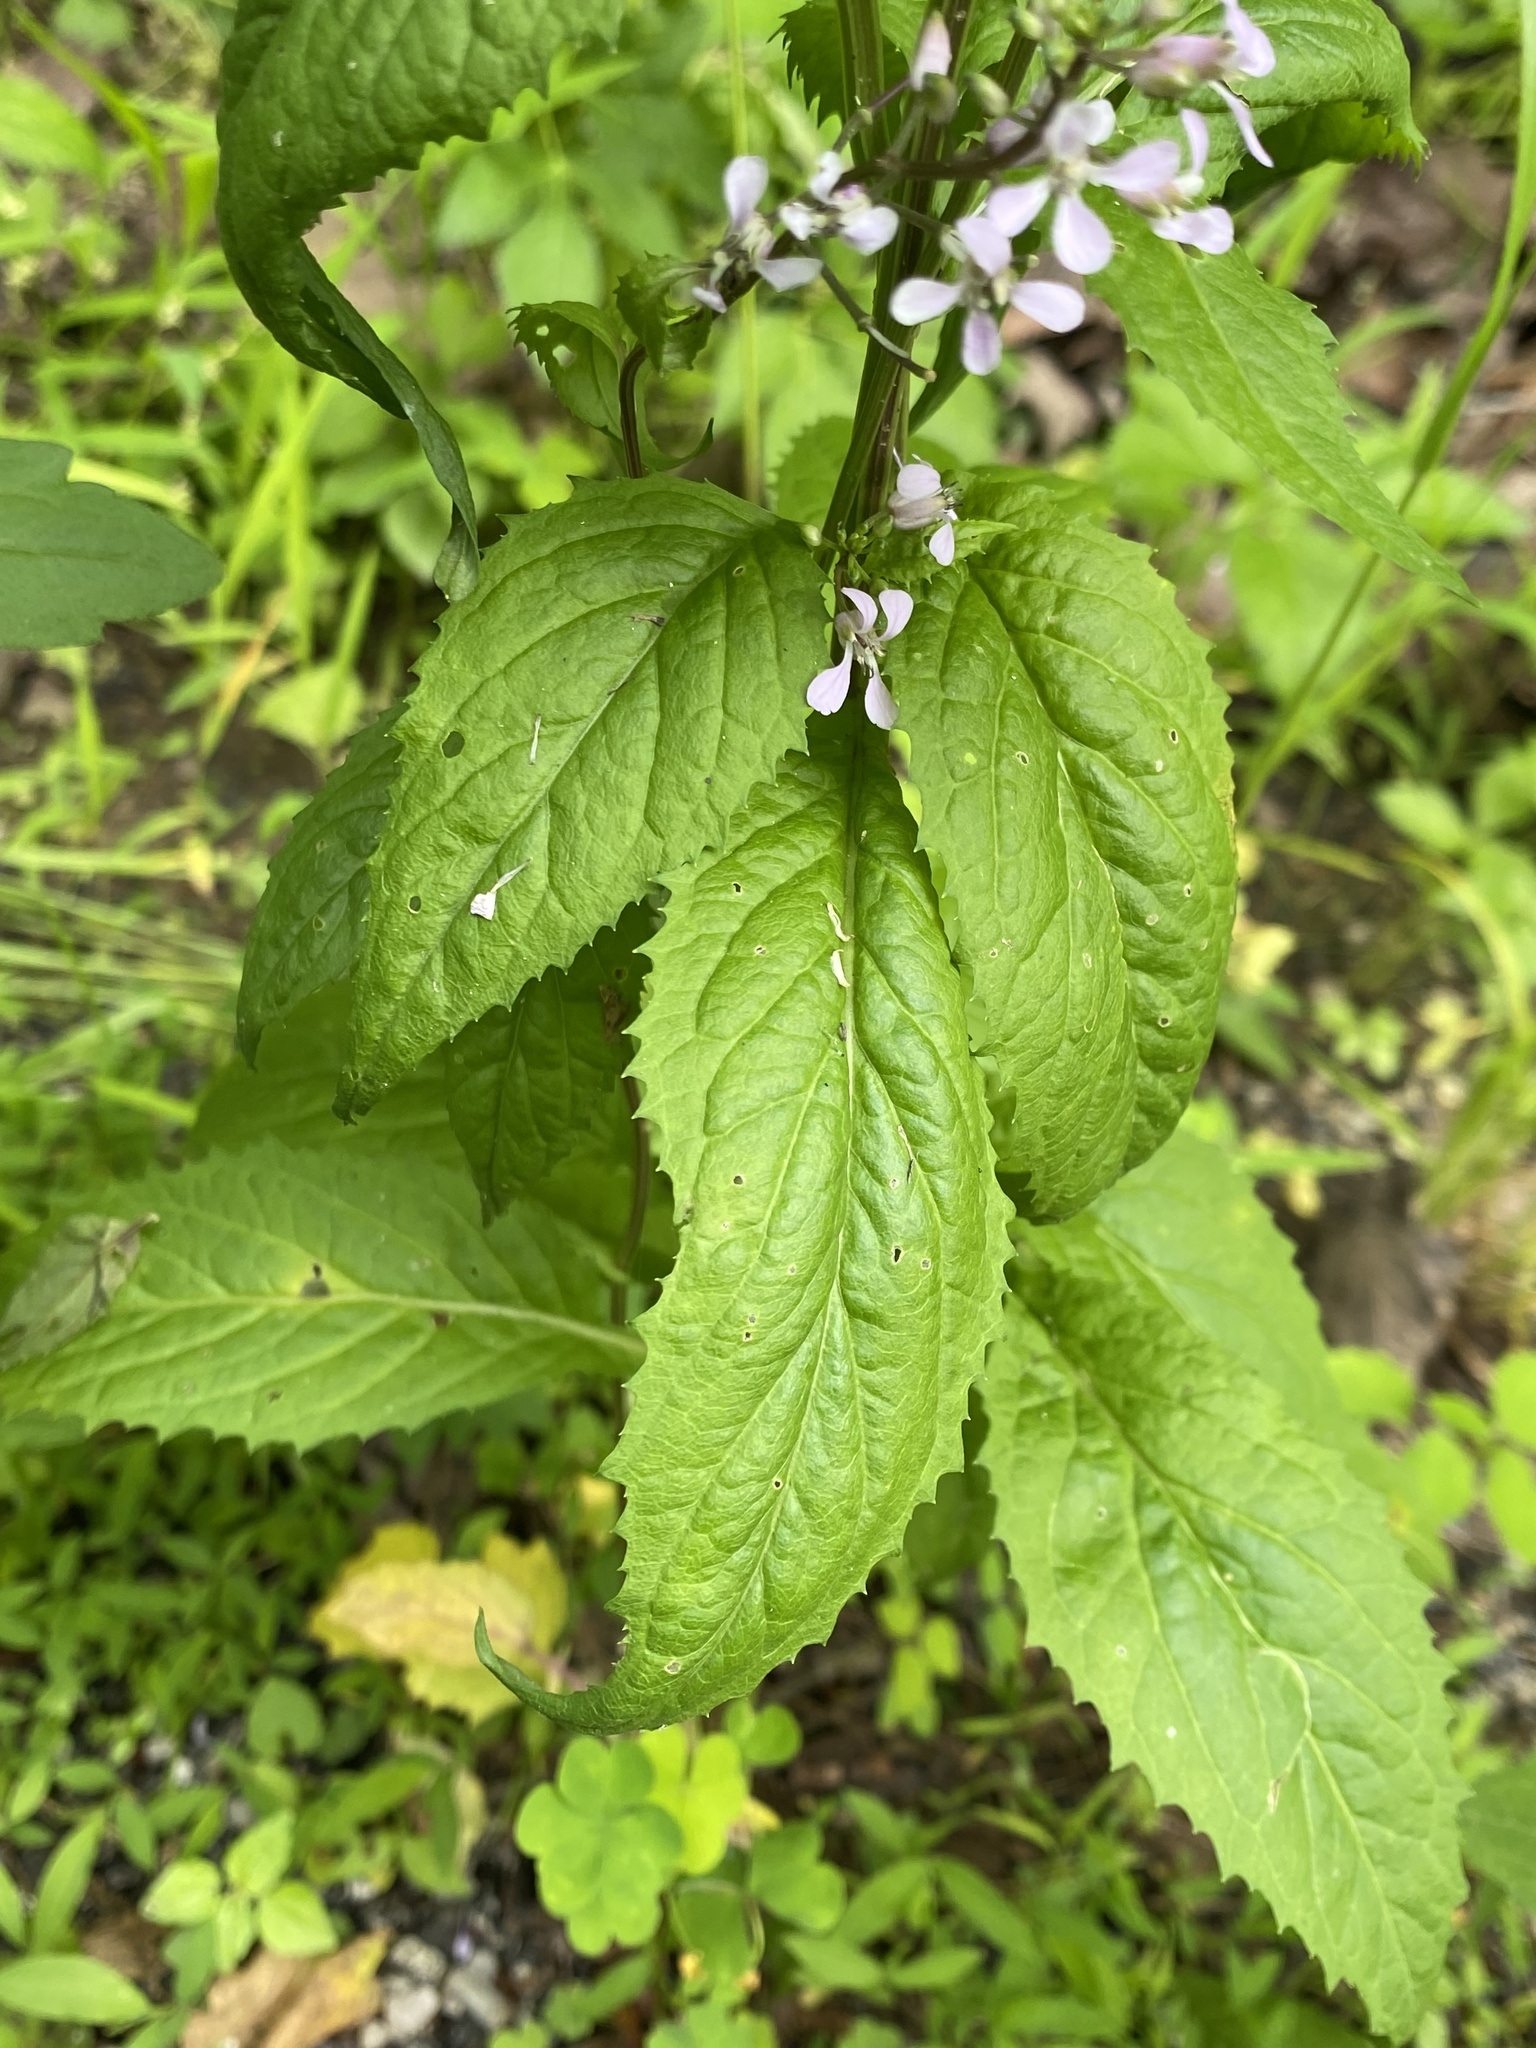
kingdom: Plantae
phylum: Tracheophyta
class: Magnoliopsida
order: Brassicales
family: Brassicaceae
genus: Iodanthus
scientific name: Iodanthus pinnatifidus
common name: Violet rocket
